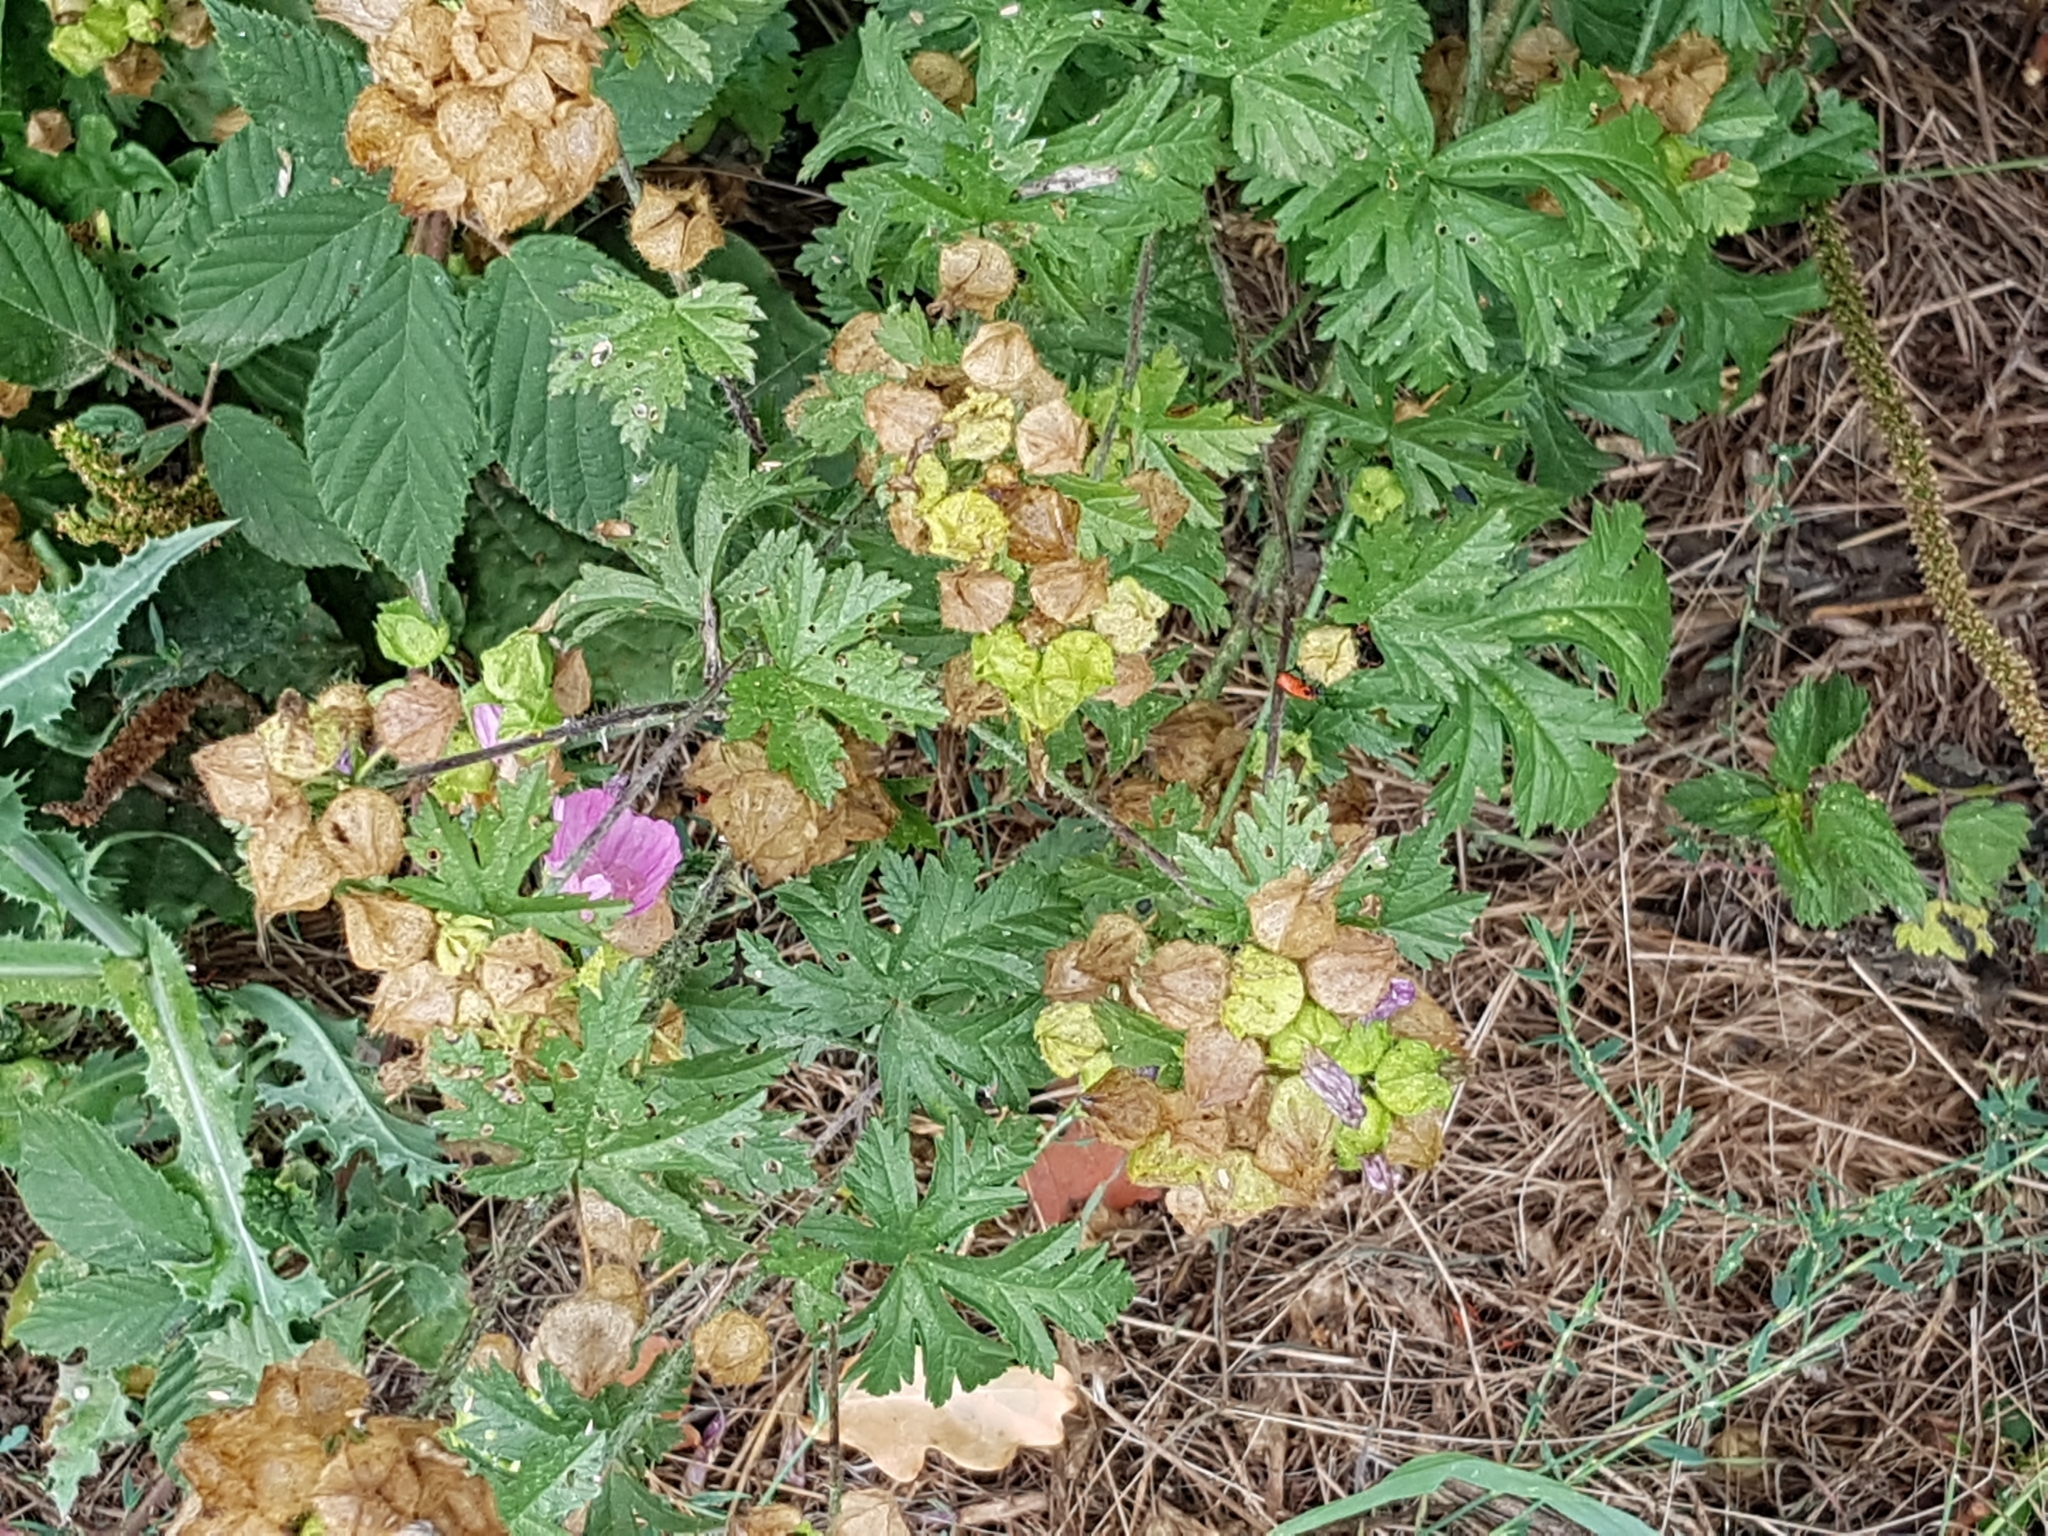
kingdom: Plantae
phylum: Tracheophyta
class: Magnoliopsida
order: Malvales
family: Malvaceae
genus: Malva
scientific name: Malva moschata
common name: Musk mallow
